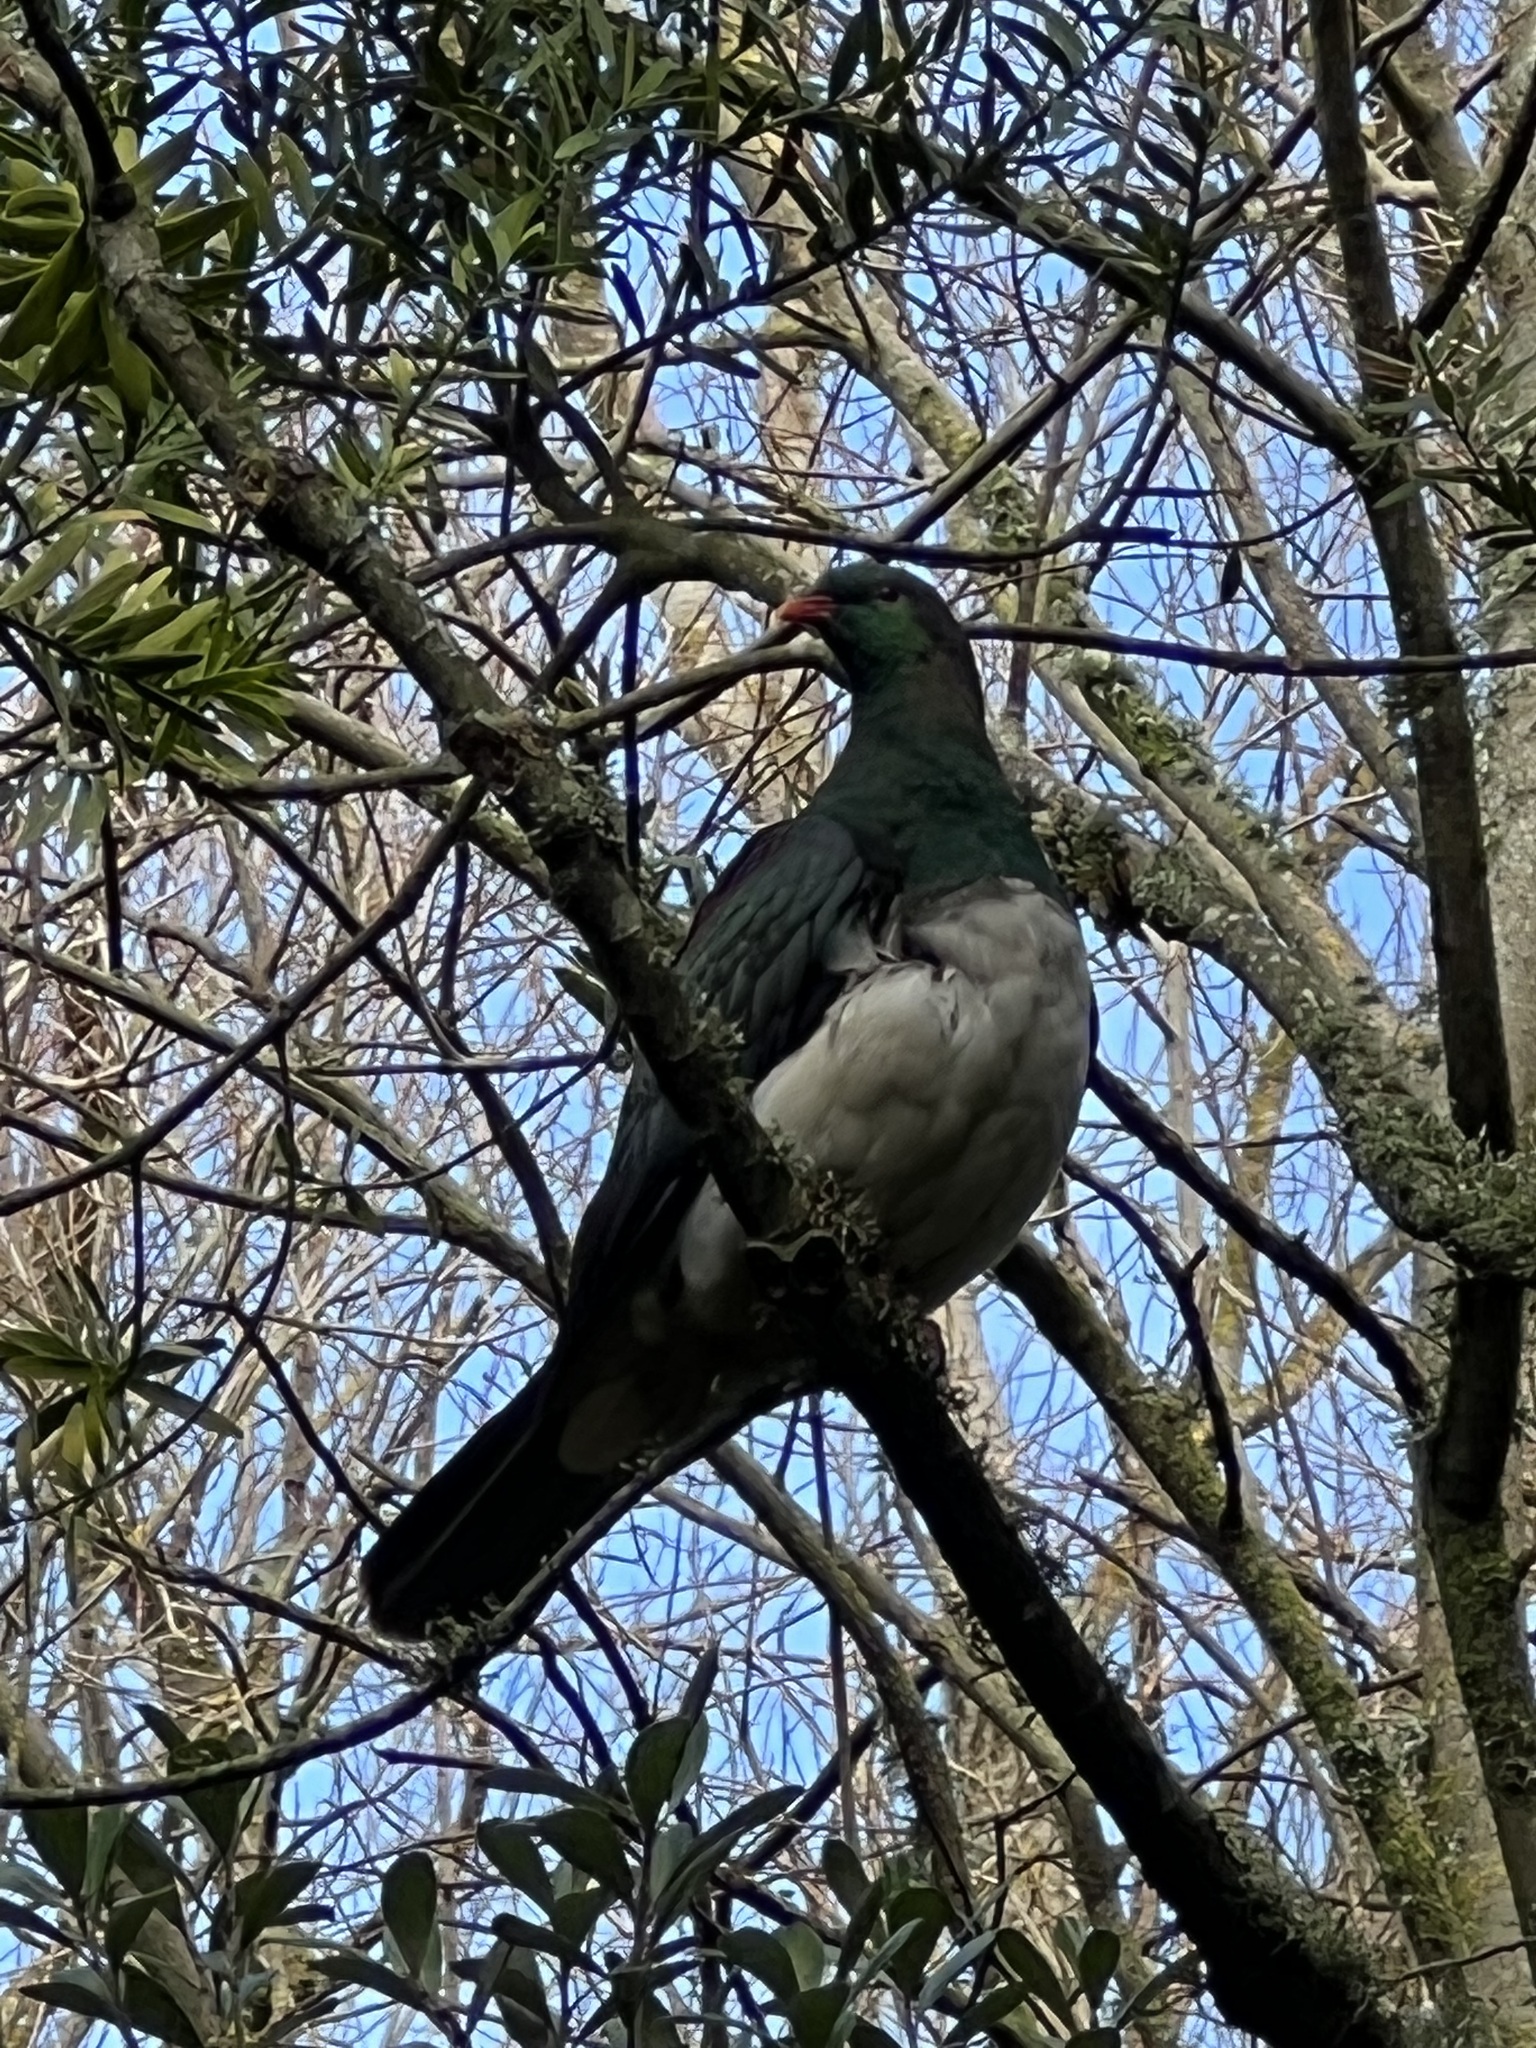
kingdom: Animalia
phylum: Chordata
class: Aves
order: Columbiformes
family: Columbidae
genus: Hemiphaga
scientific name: Hemiphaga novaeseelandiae
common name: New zealand pigeon
